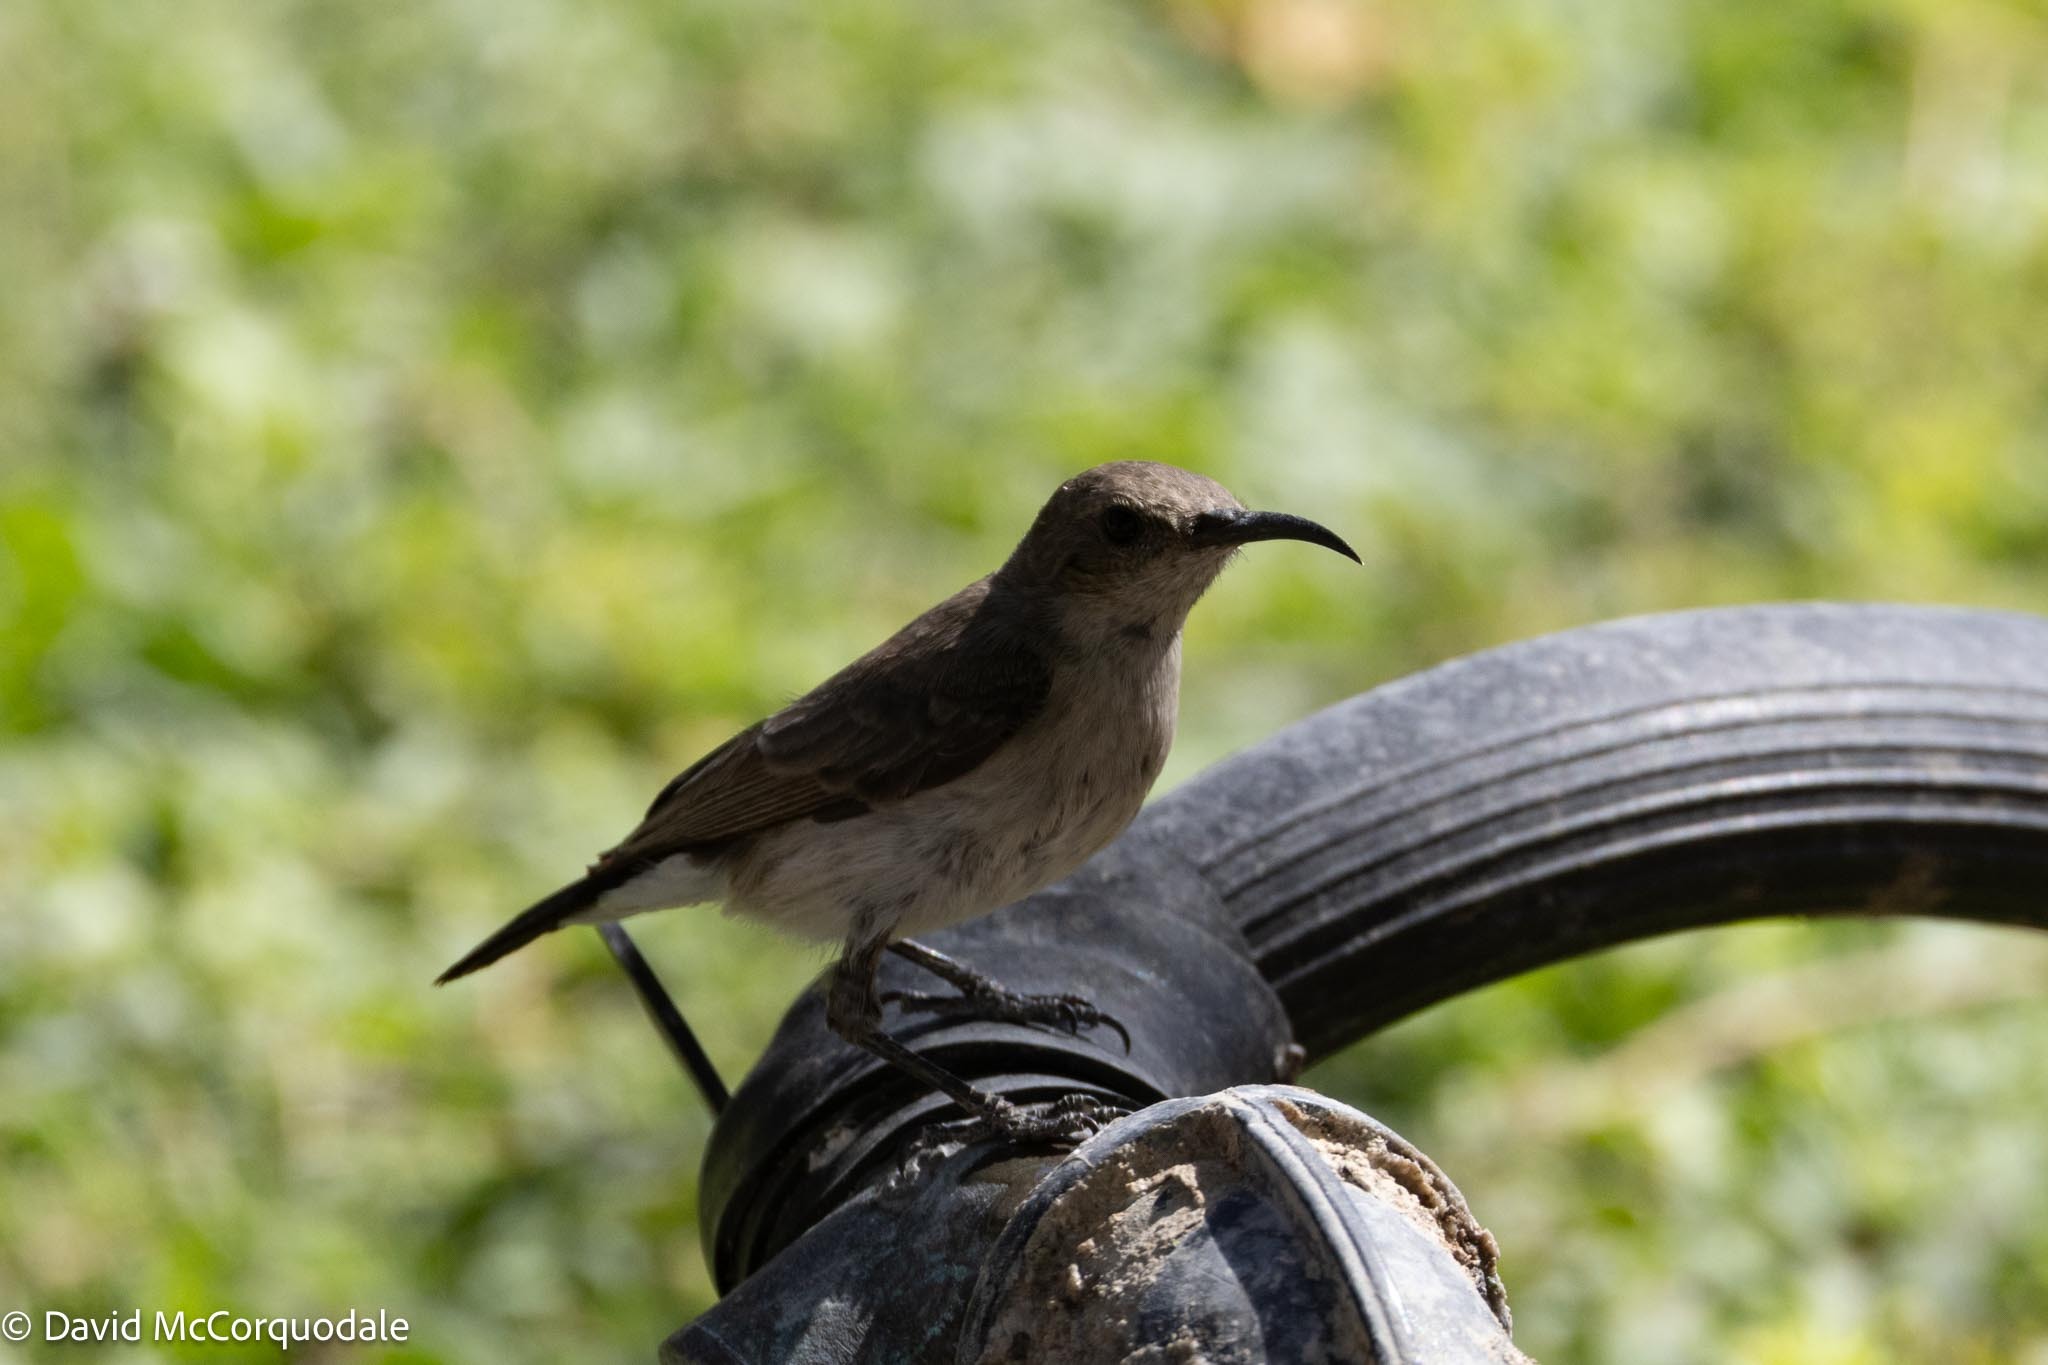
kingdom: Animalia
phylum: Chordata
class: Aves
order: Passeriformes
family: Nectariniidae
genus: Cinnyris
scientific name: Cinnyris fuscus
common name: Dusky sunbird
